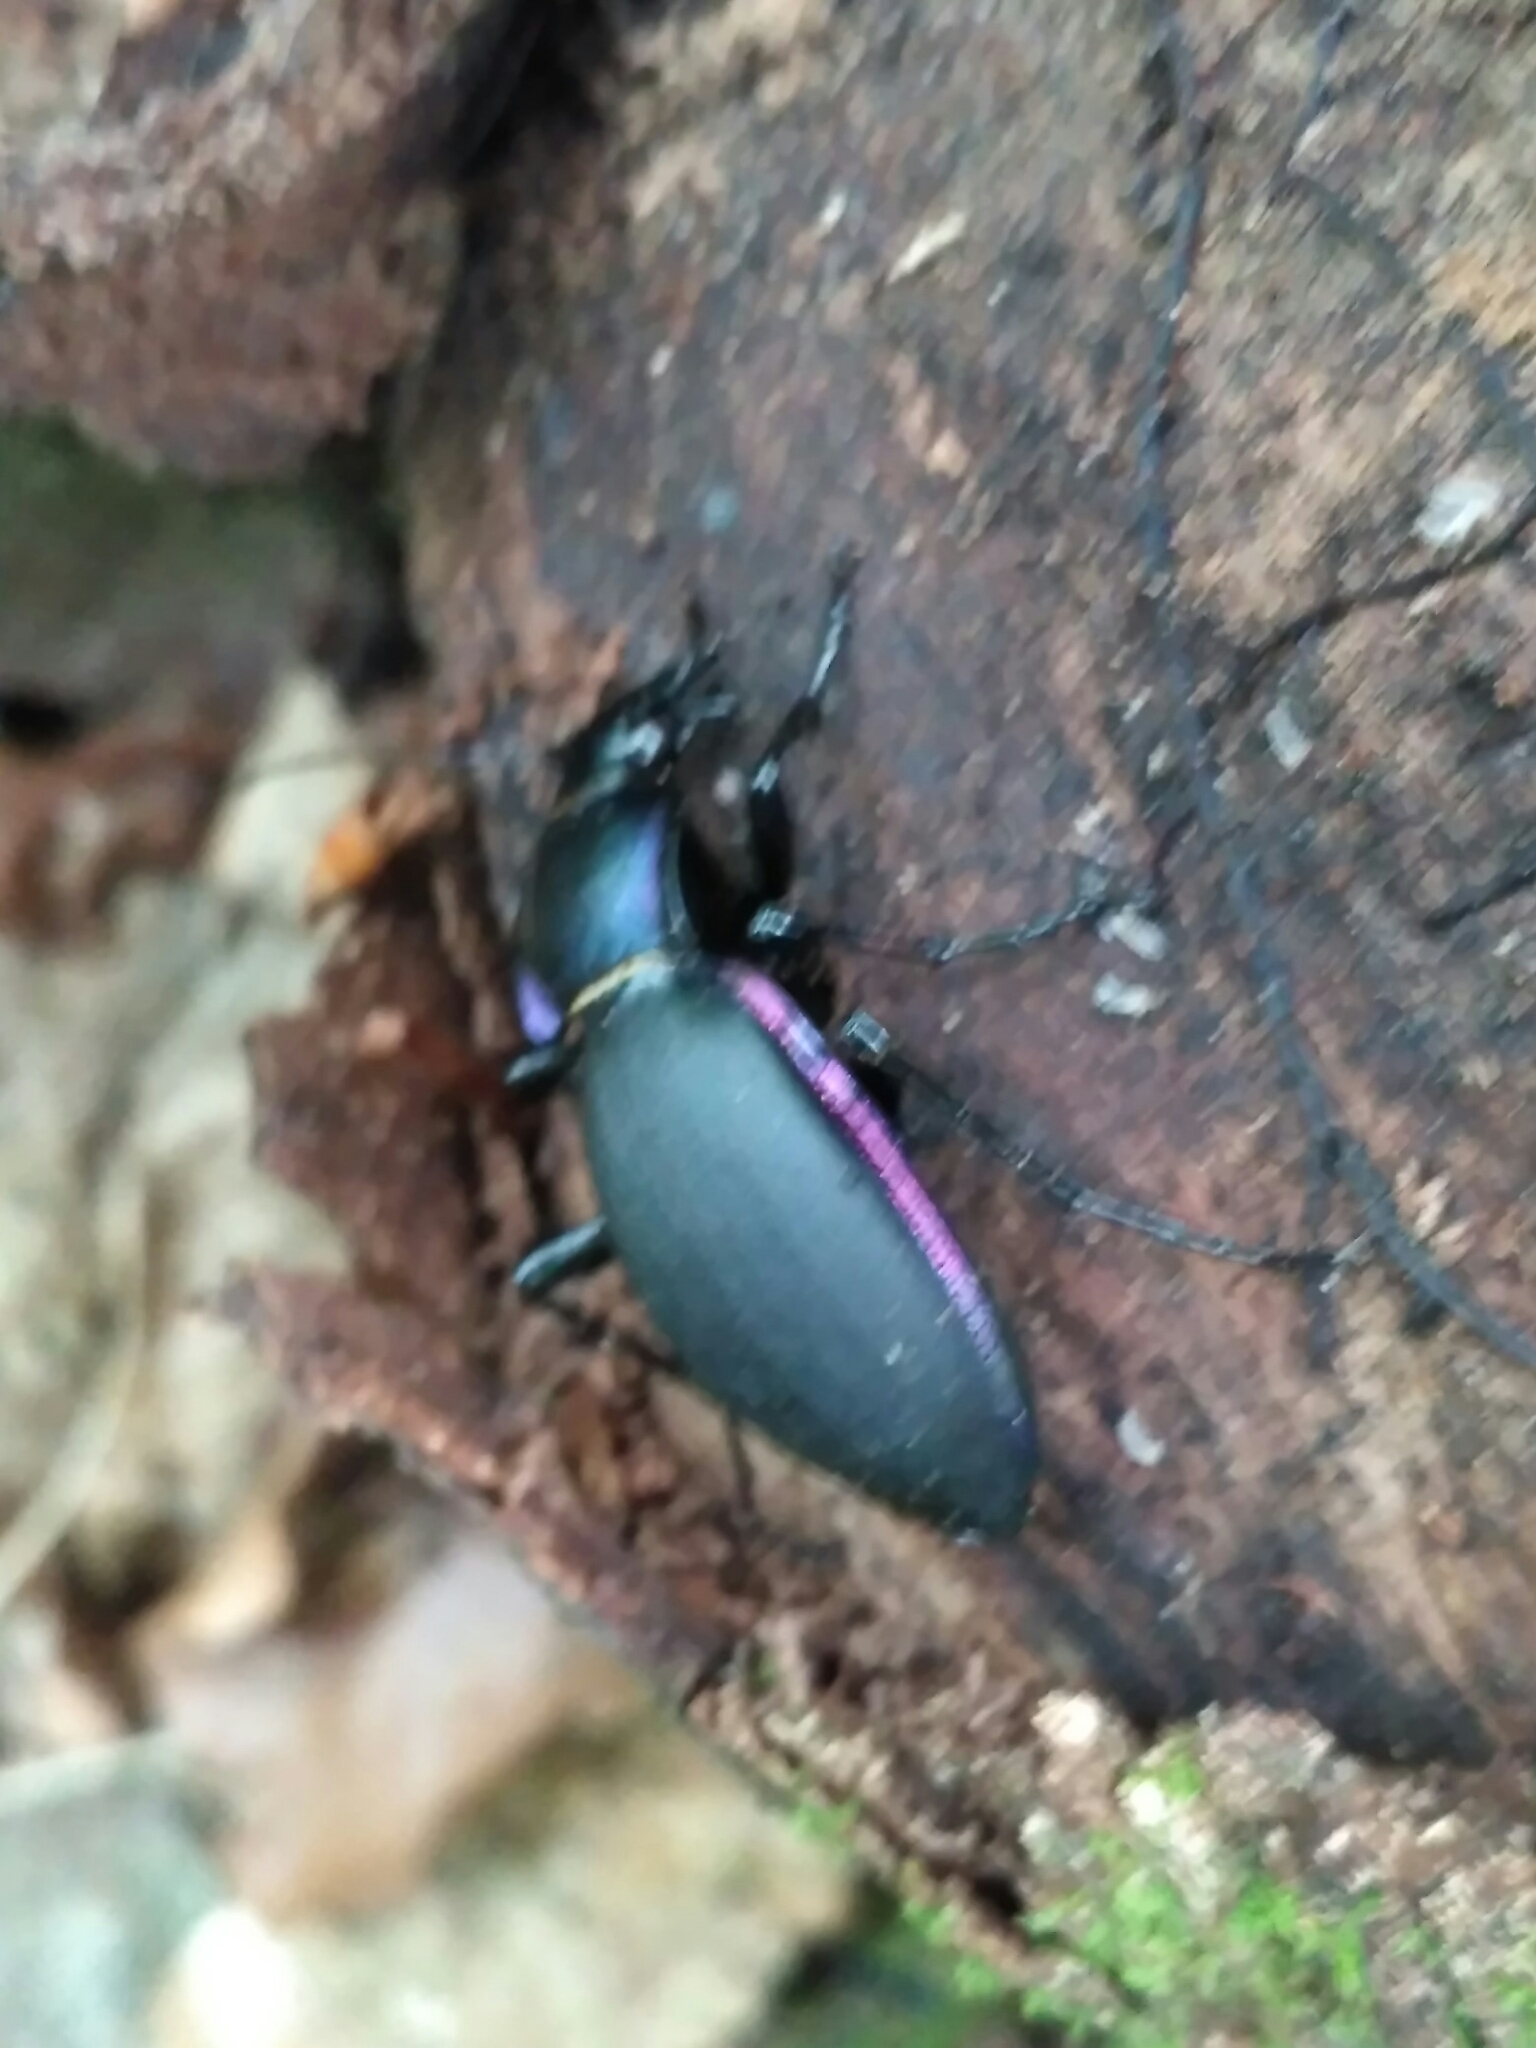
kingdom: Animalia
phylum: Arthropoda
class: Insecta
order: Coleoptera
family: Carabidae
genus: Carabus
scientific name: Carabus violaceus
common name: Violet ground beetle
